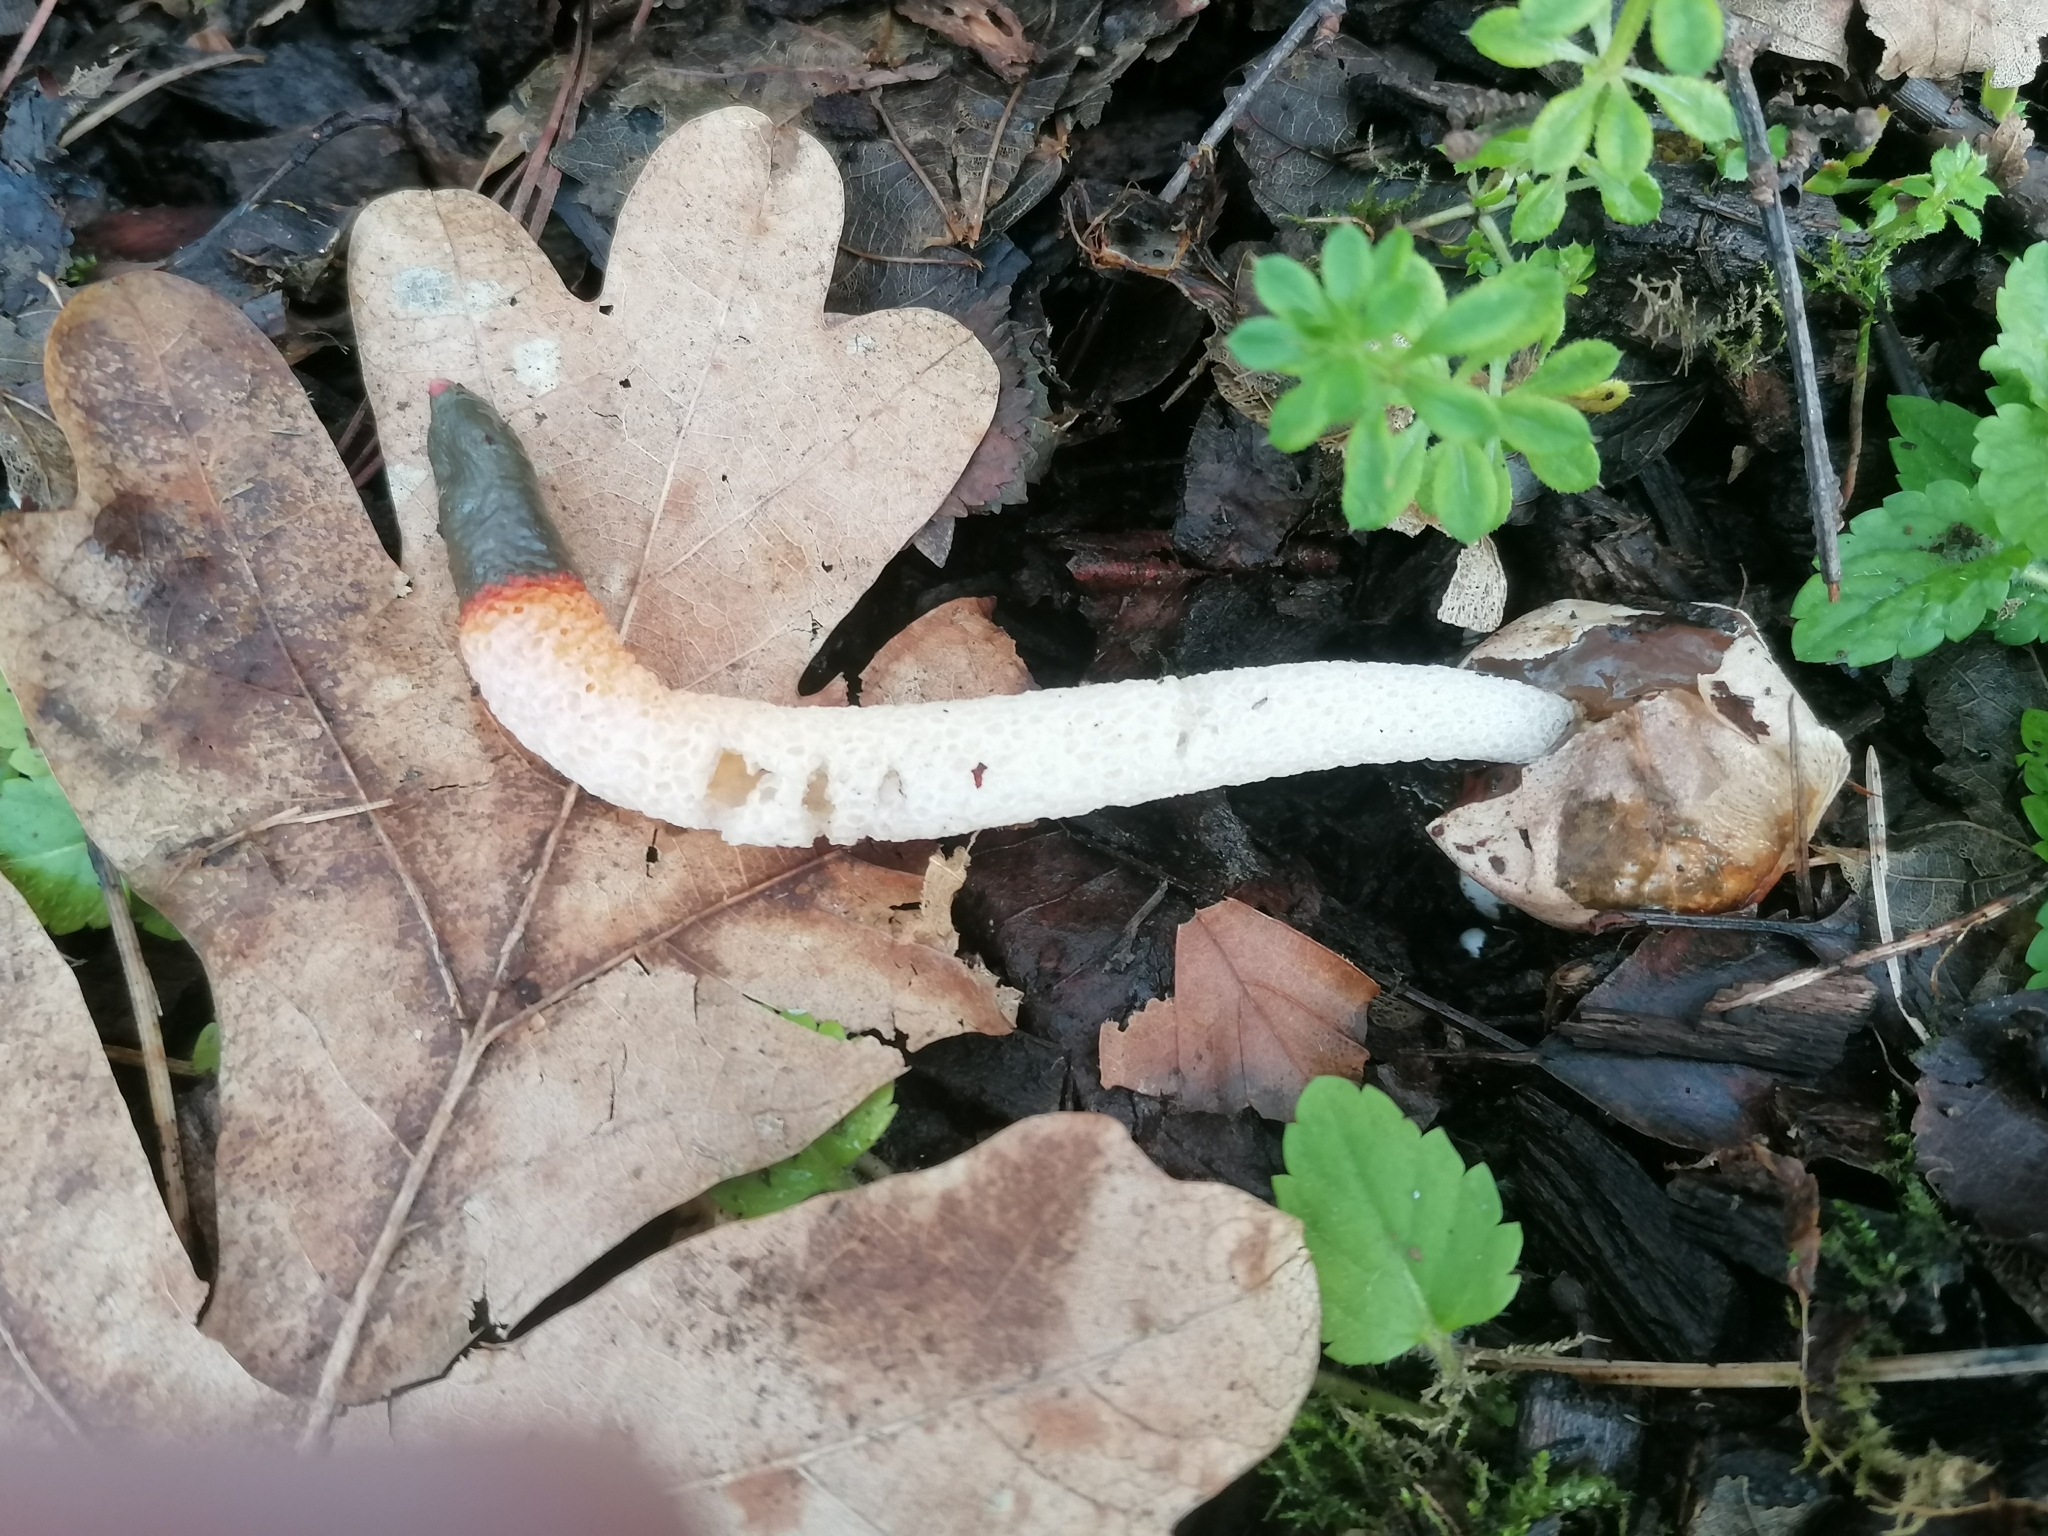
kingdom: Fungi
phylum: Basidiomycota
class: Agaricomycetes
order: Phallales
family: Phallaceae
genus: Mutinus
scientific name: Mutinus caninus
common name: Dog stinkhorn
